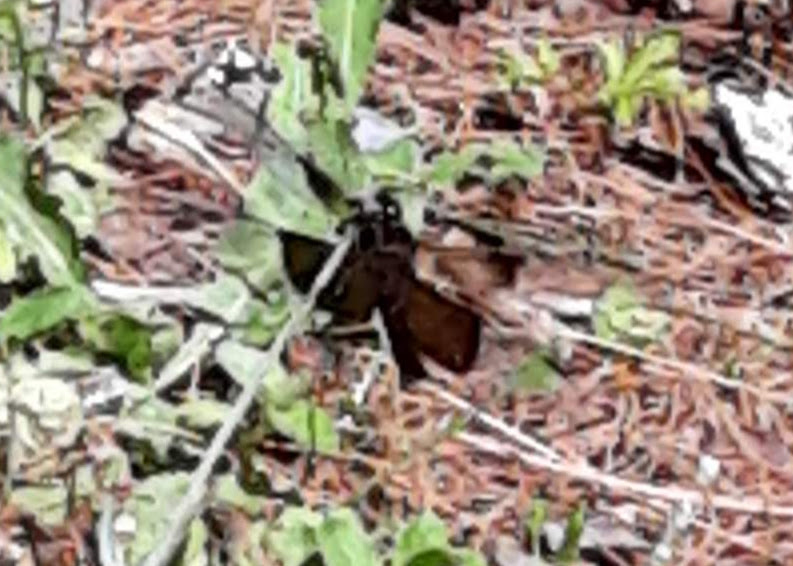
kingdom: Animalia
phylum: Arthropoda
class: Insecta
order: Odonata
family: Libellulidae
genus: Libellula
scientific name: Libellula luctuosa
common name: Widow skimmer
